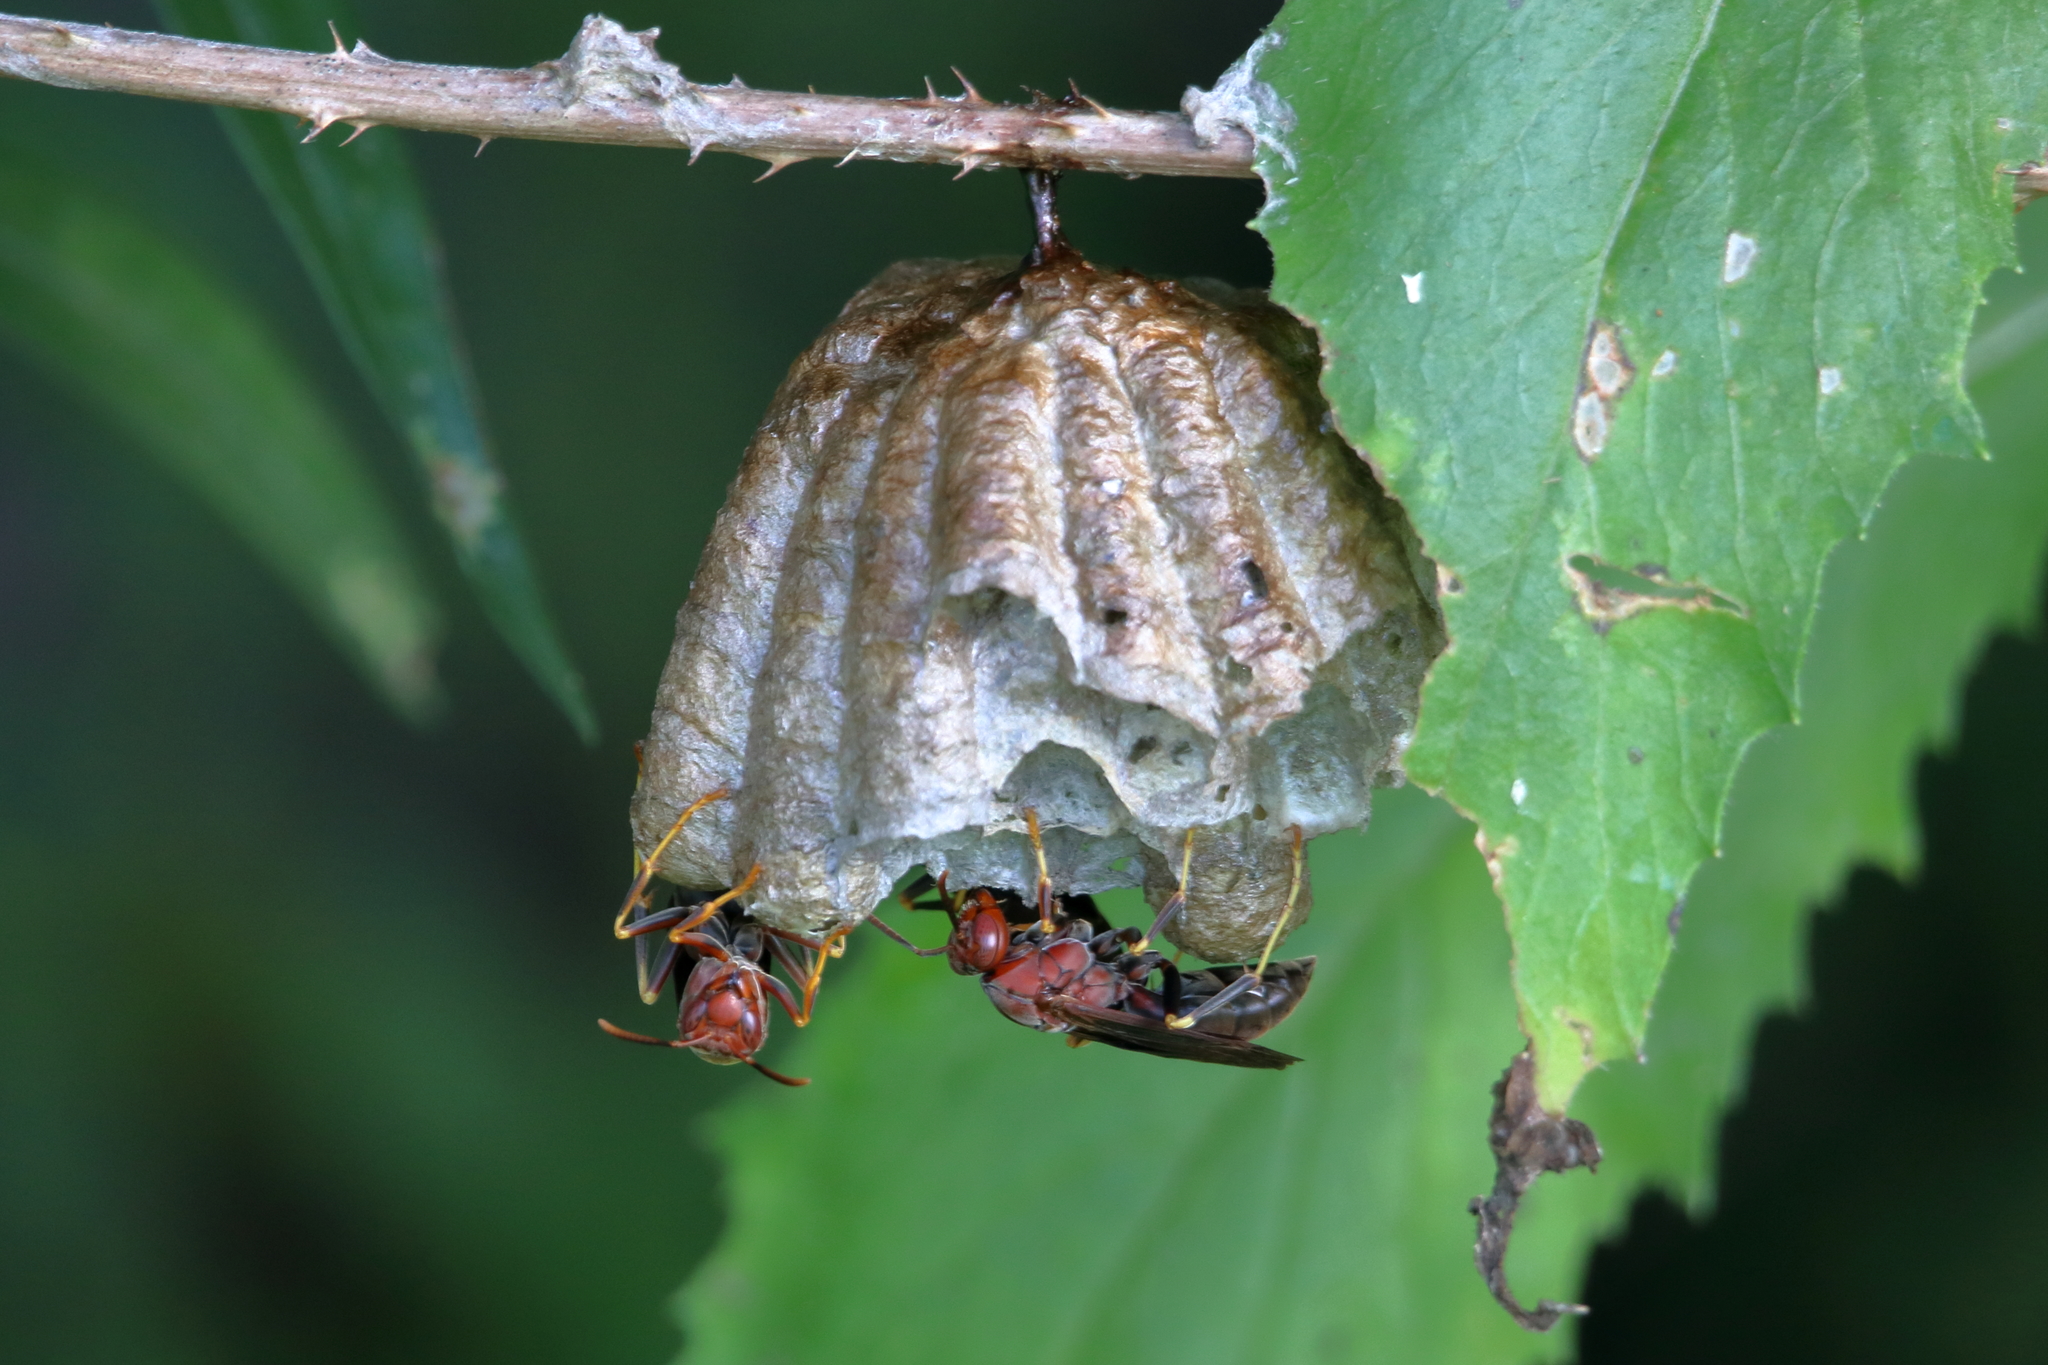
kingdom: Animalia
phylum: Arthropoda
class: Insecta
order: Hymenoptera
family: Eumenidae
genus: Polistes
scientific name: Polistes metricus
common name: Metric paper wasp
